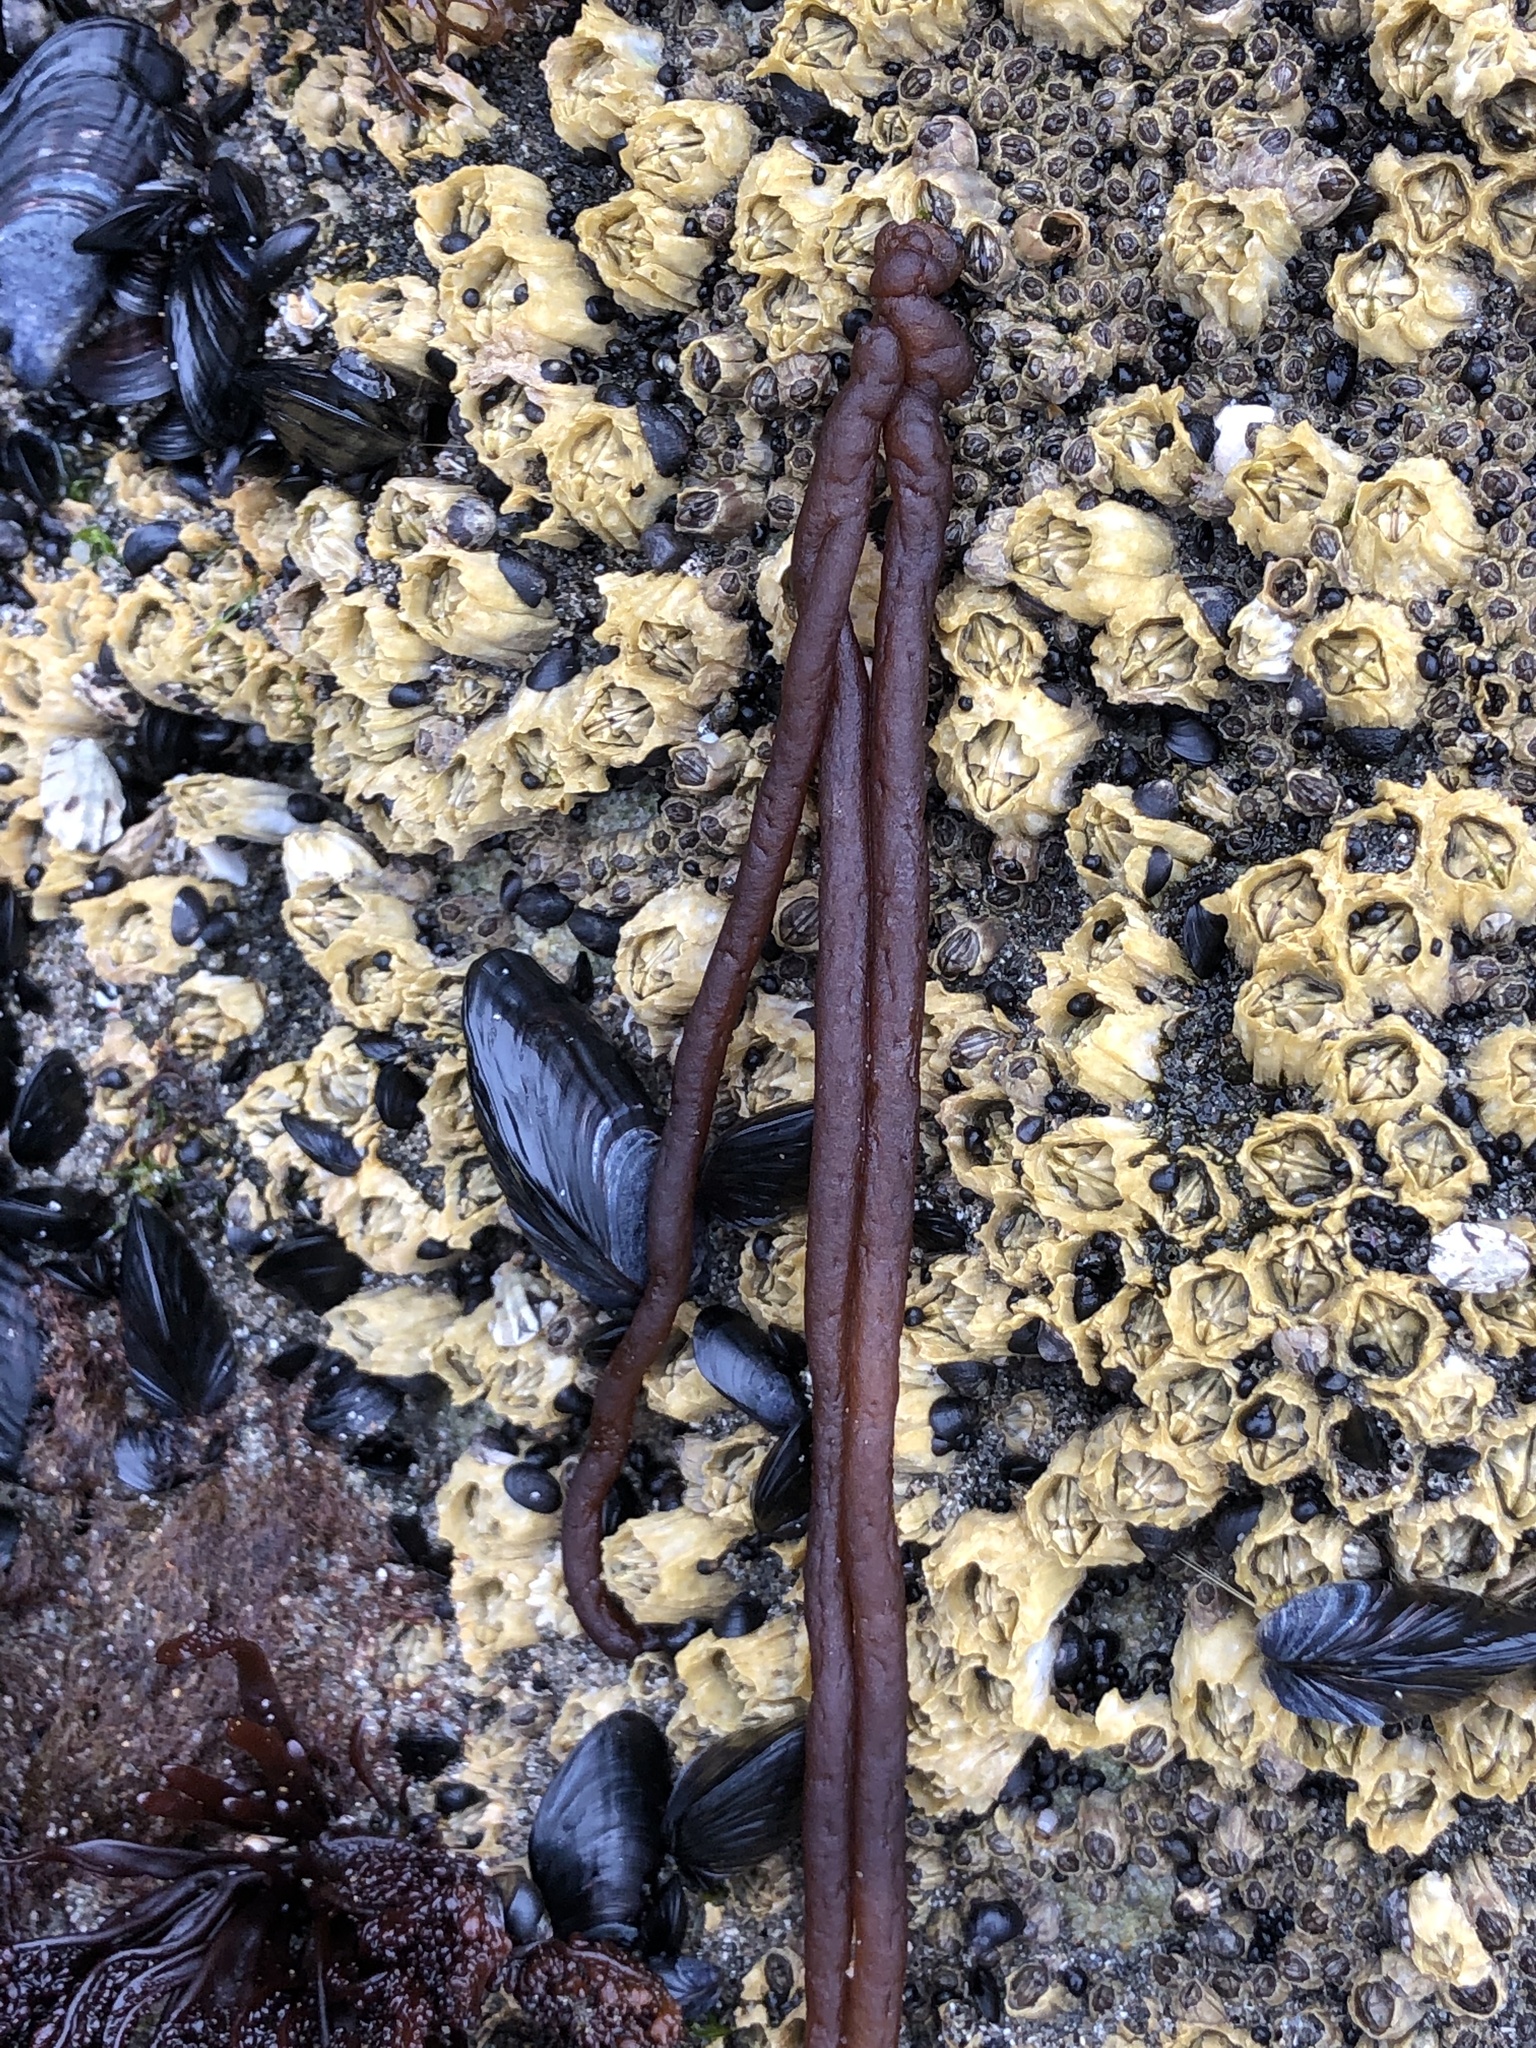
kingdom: Plantae
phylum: Rhodophyta
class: Florideophyceae
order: Nemaliales
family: Nemaliaceae
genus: Nemalion
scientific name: Nemalion elminthoides
